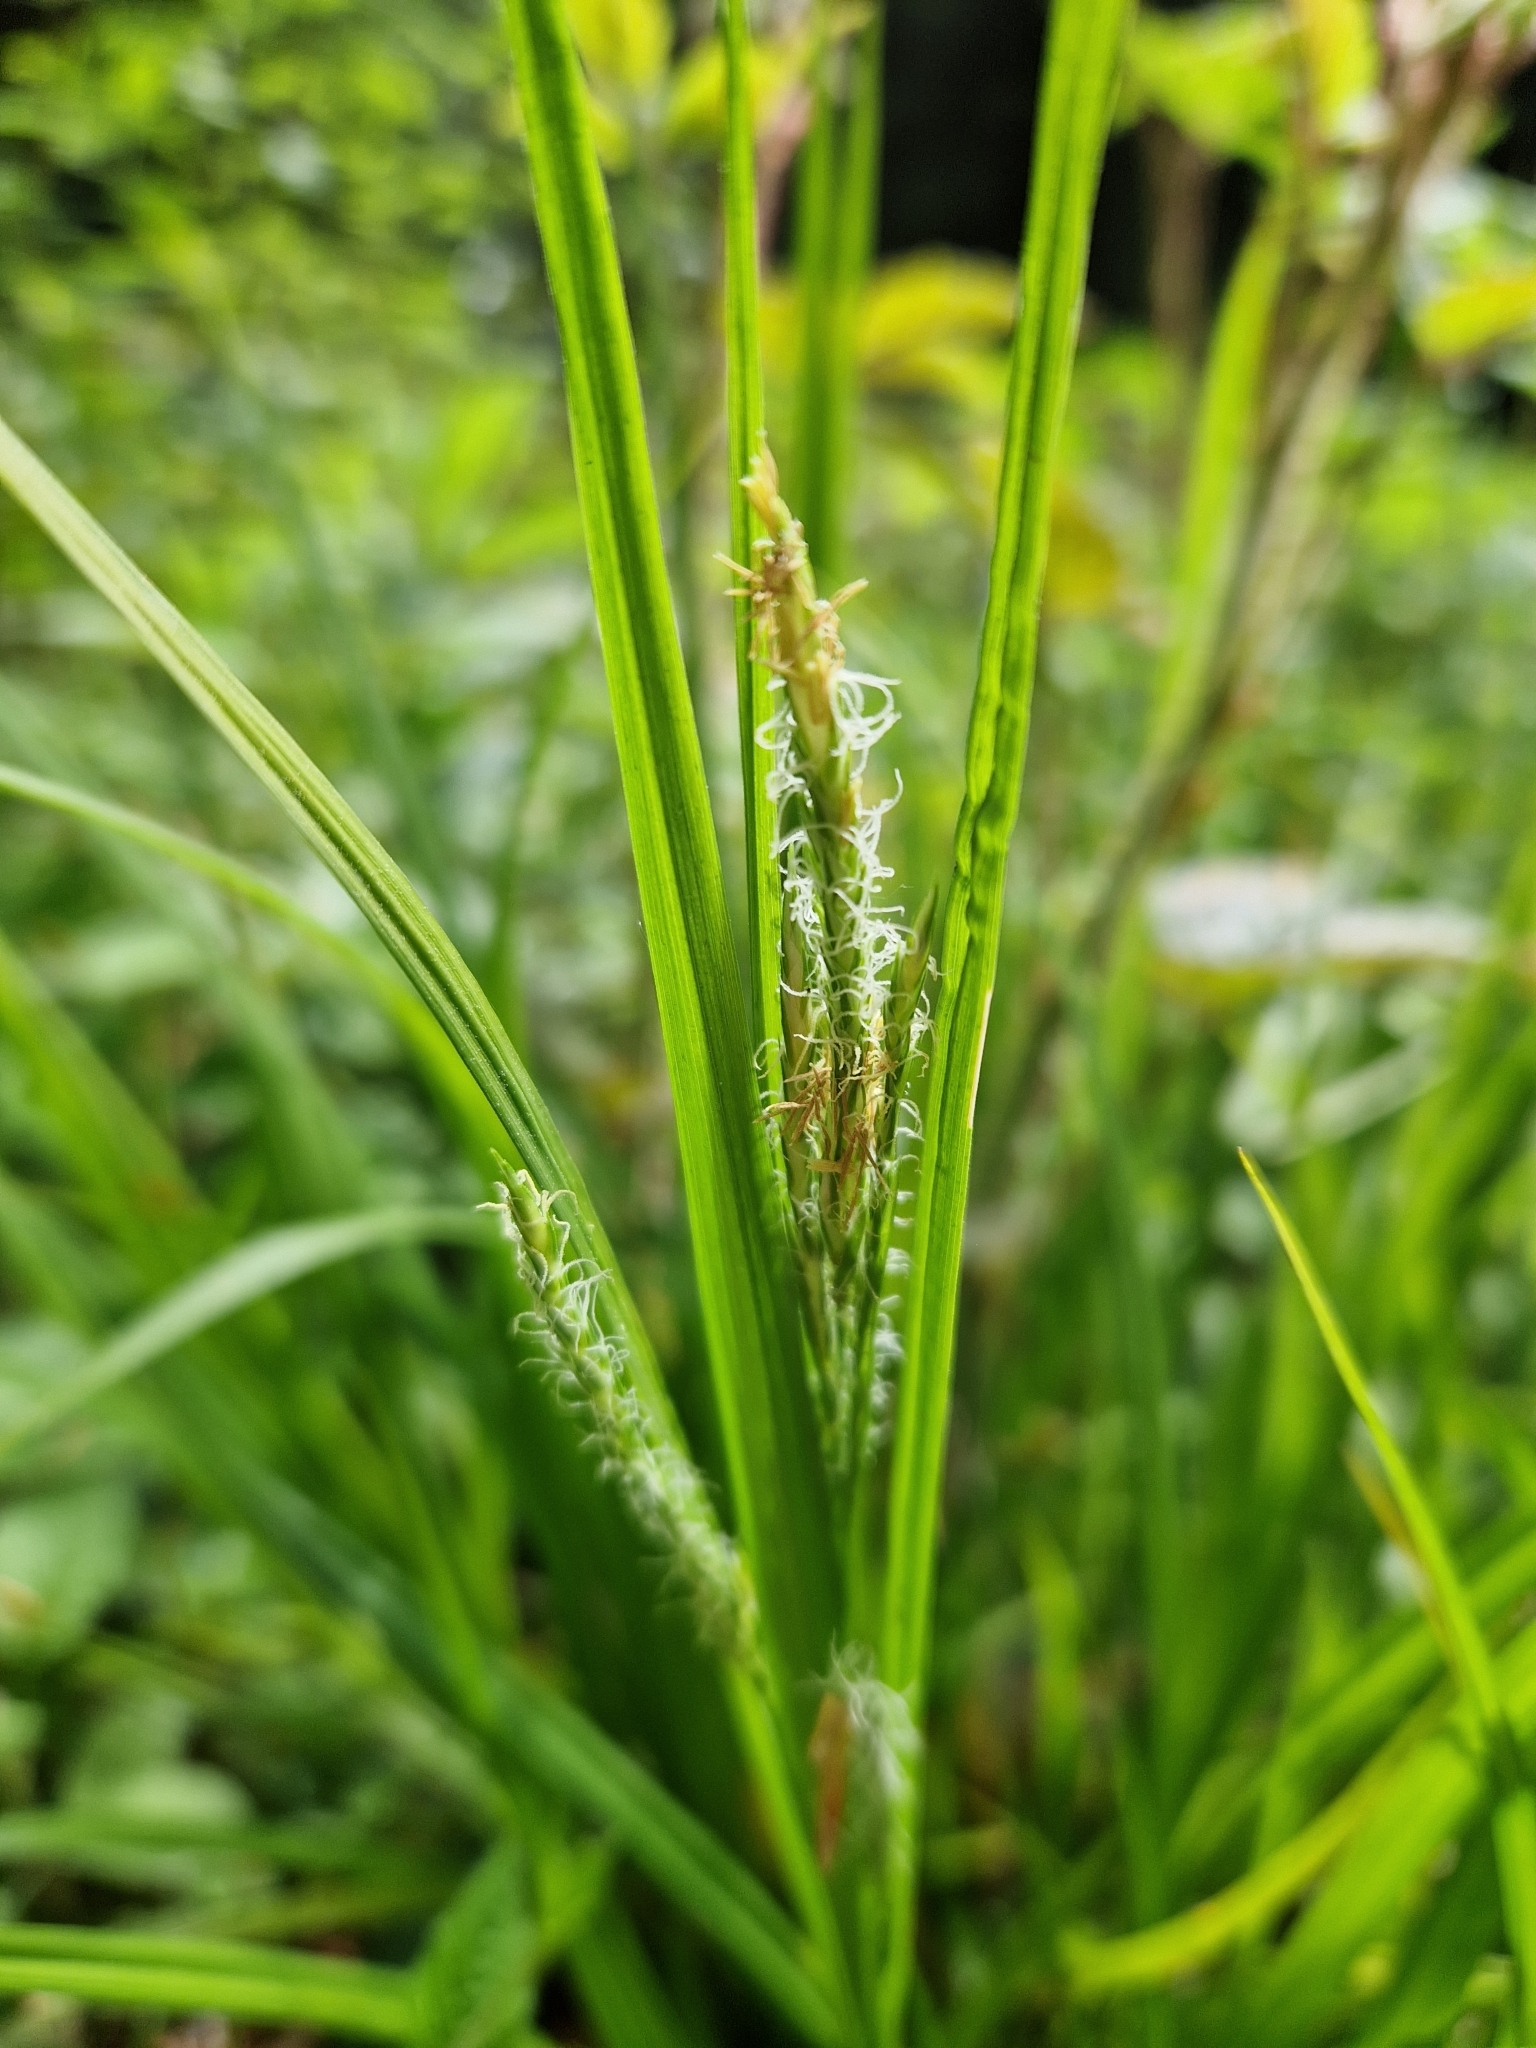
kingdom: Plantae
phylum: Tracheophyta
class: Liliopsida
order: Poales
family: Cyperaceae
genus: Carex
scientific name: Carex sylvatica
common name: Wood-sedge
